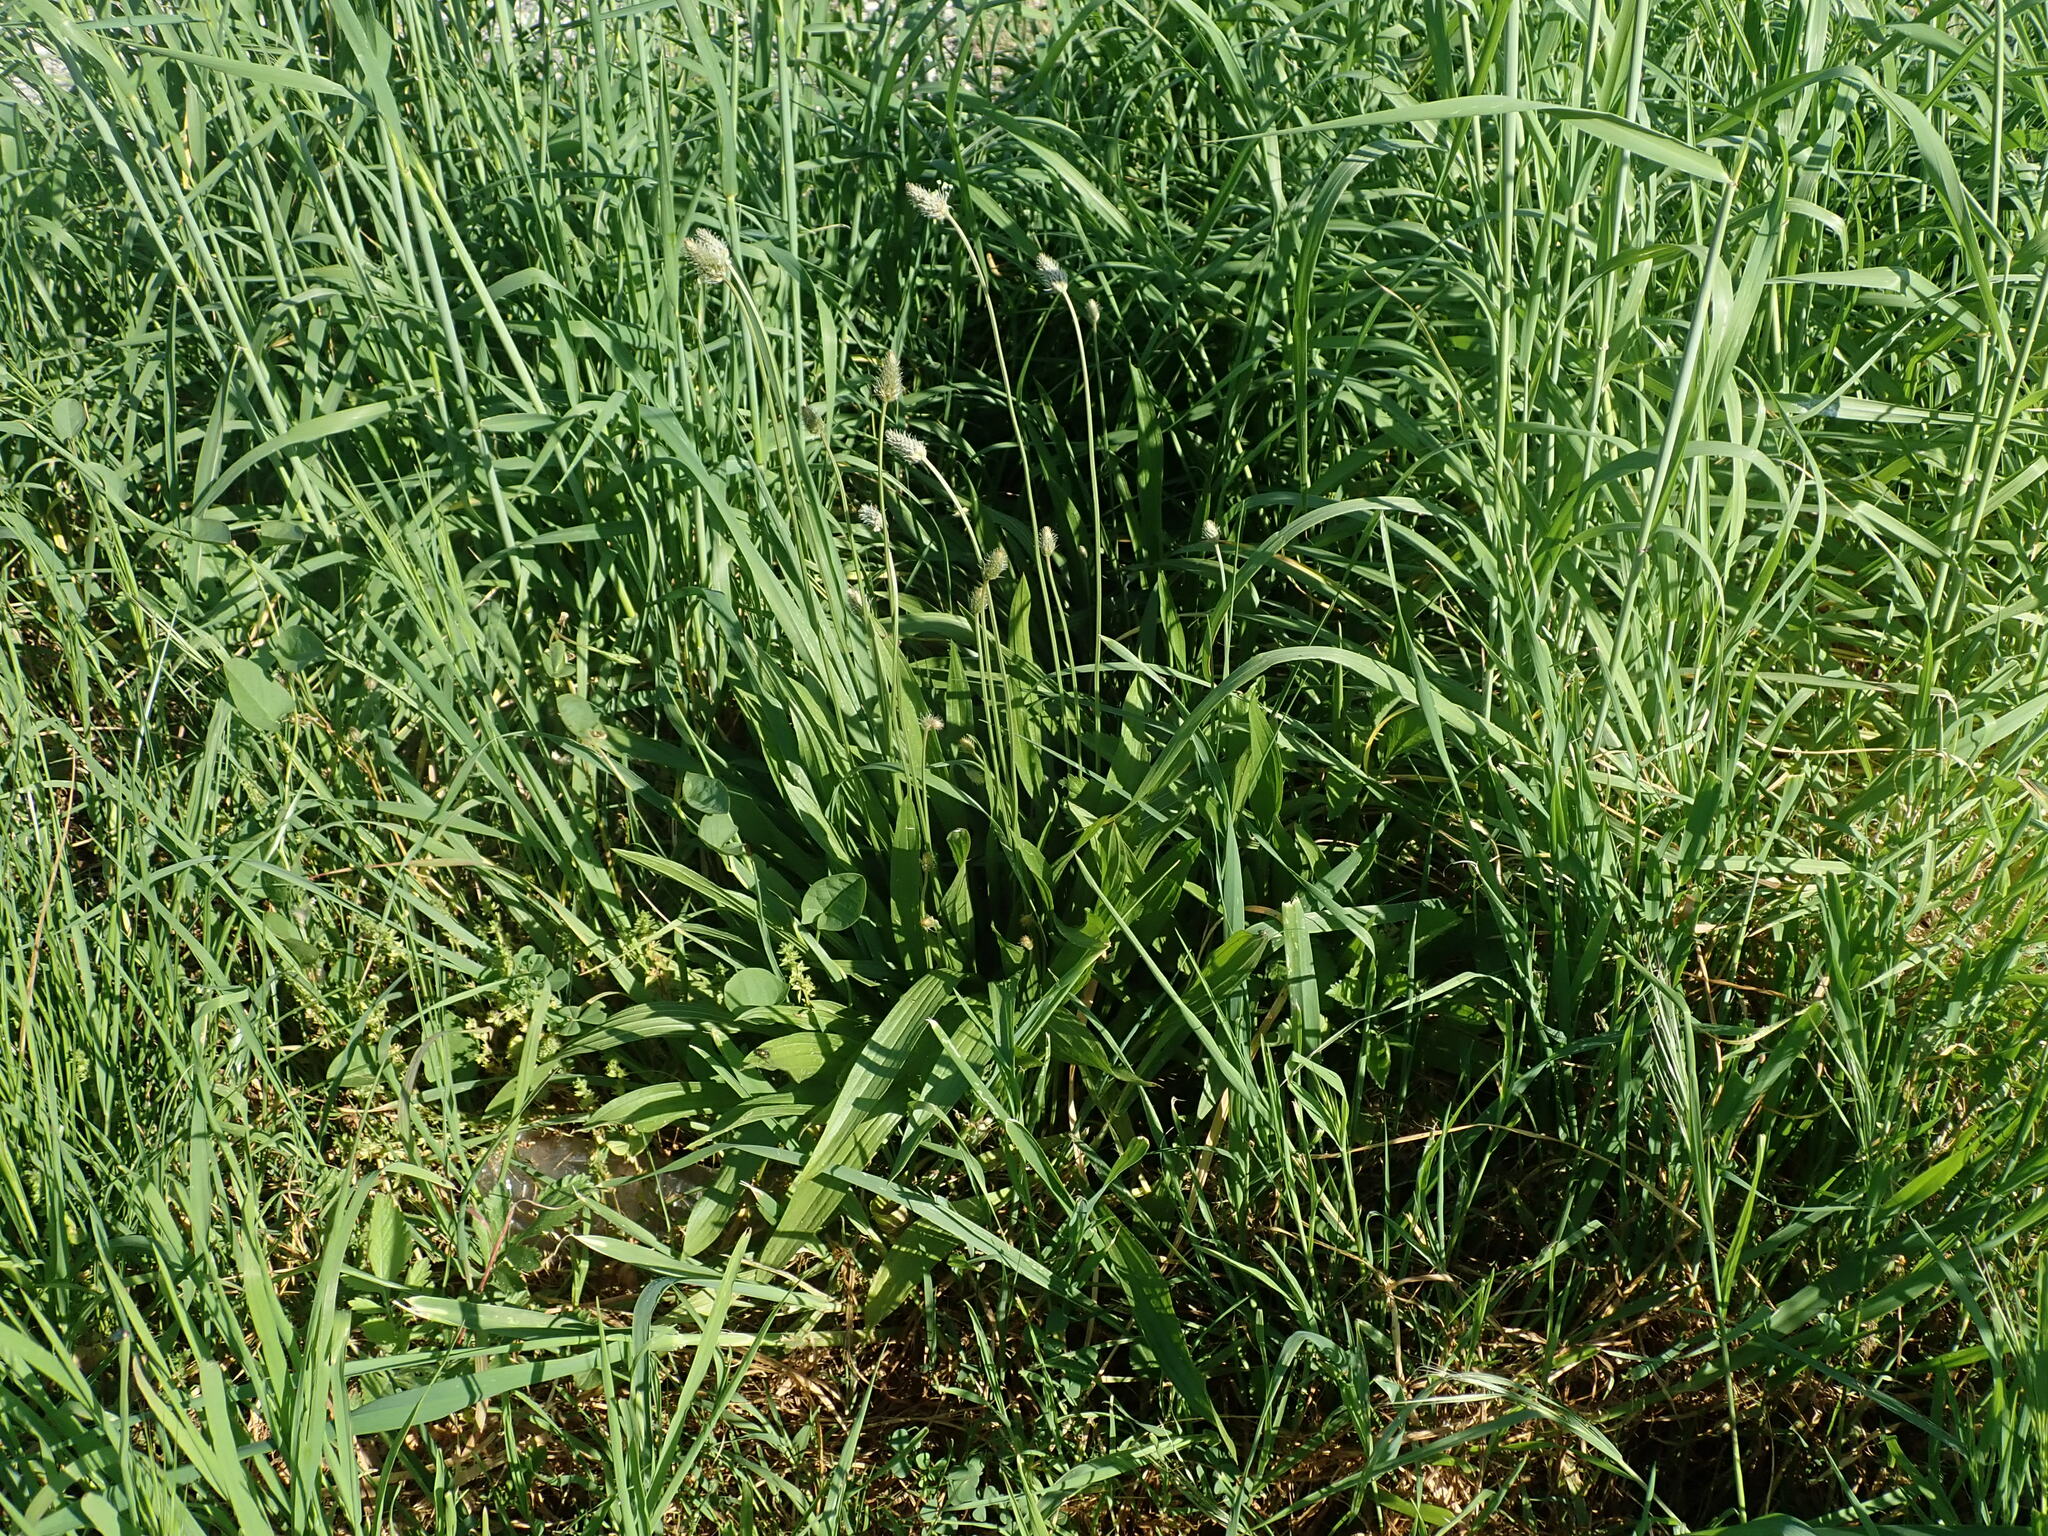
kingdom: Plantae
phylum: Tracheophyta
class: Magnoliopsida
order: Lamiales
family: Plantaginaceae
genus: Plantago
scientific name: Plantago lanceolata
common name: Ribwort plantain
